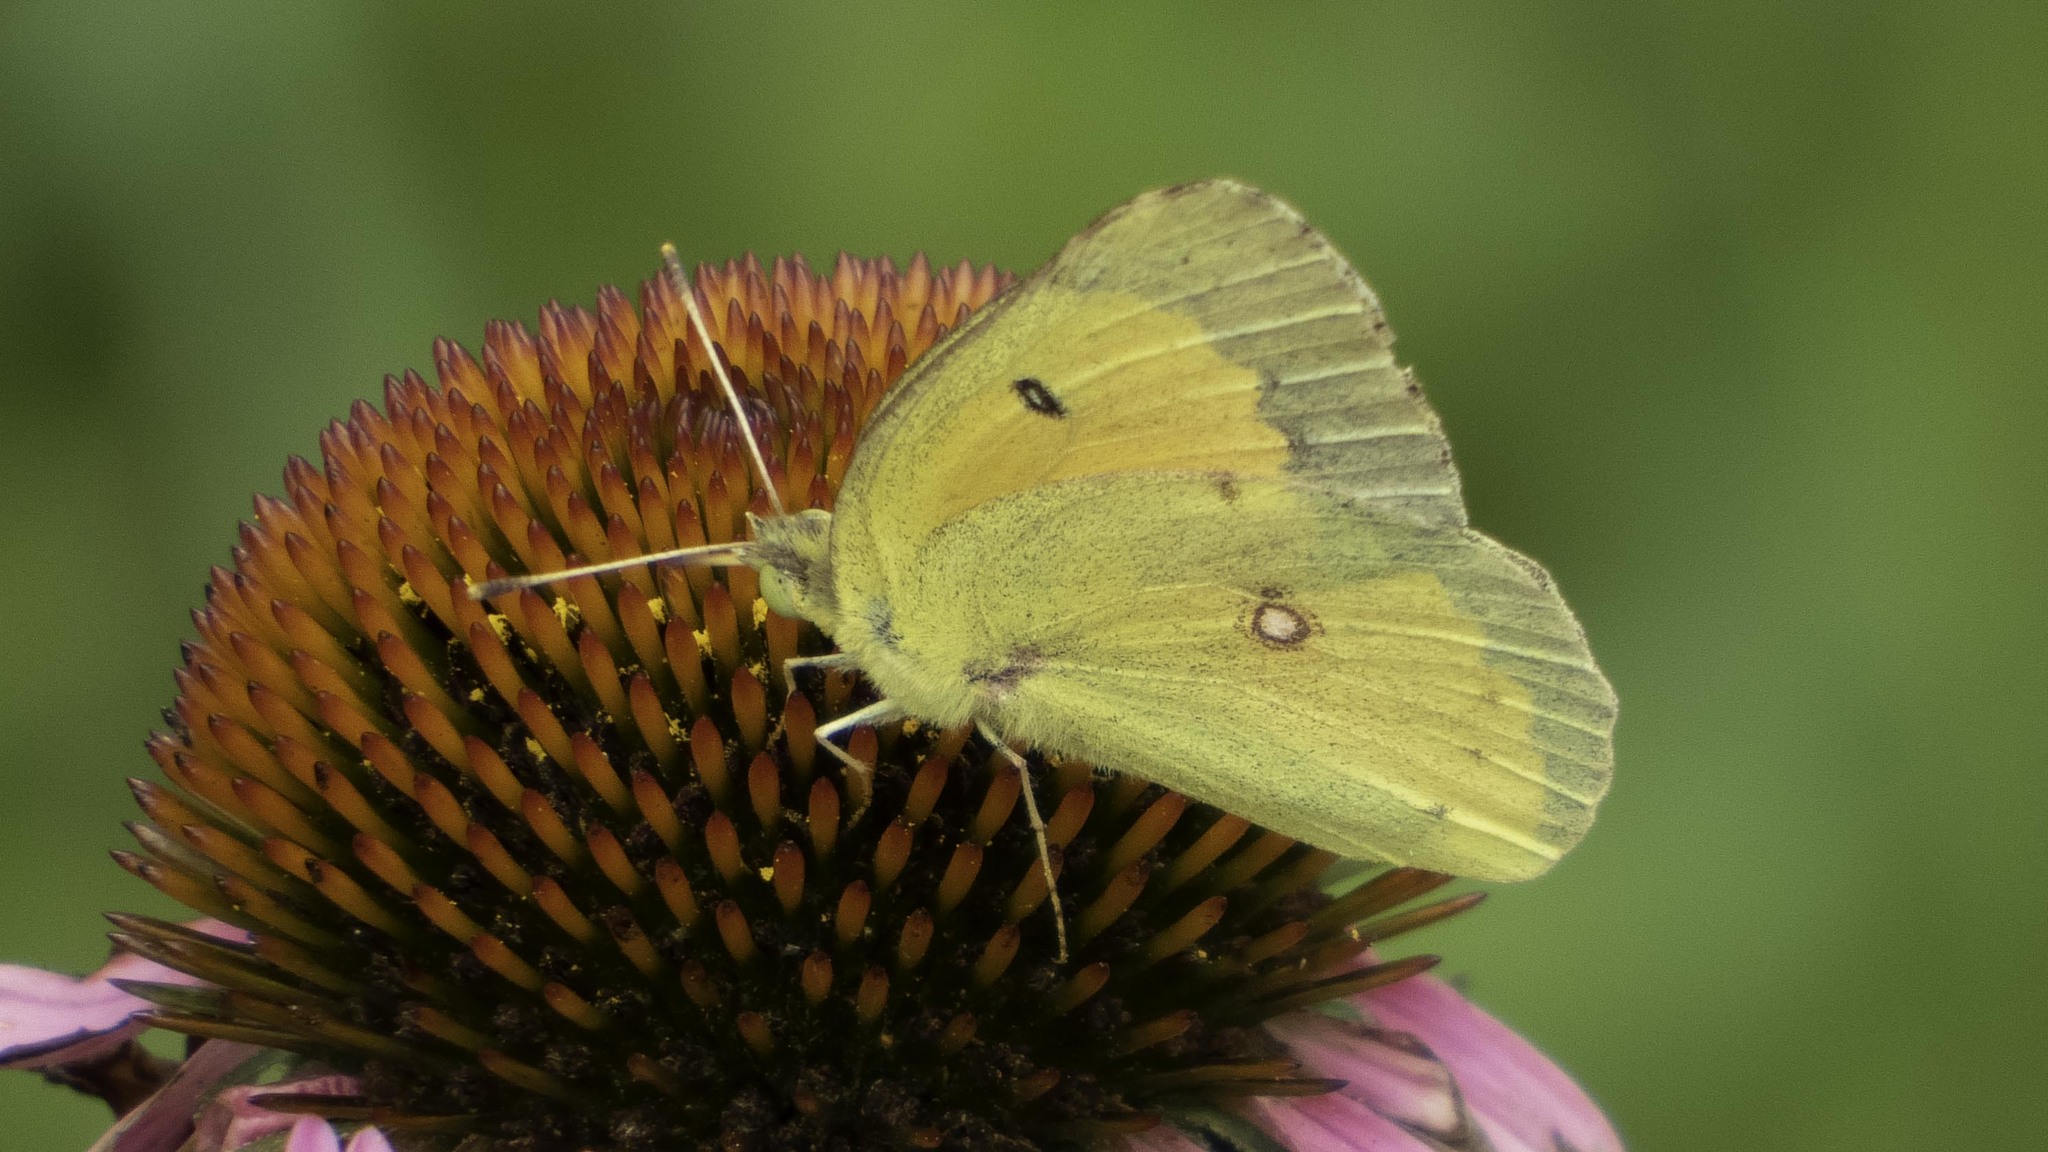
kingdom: Animalia
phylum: Arthropoda
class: Insecta
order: Lepidoptera
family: Pieridae
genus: Colias
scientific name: Colias eurytheme
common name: Alfalfa butterfly
